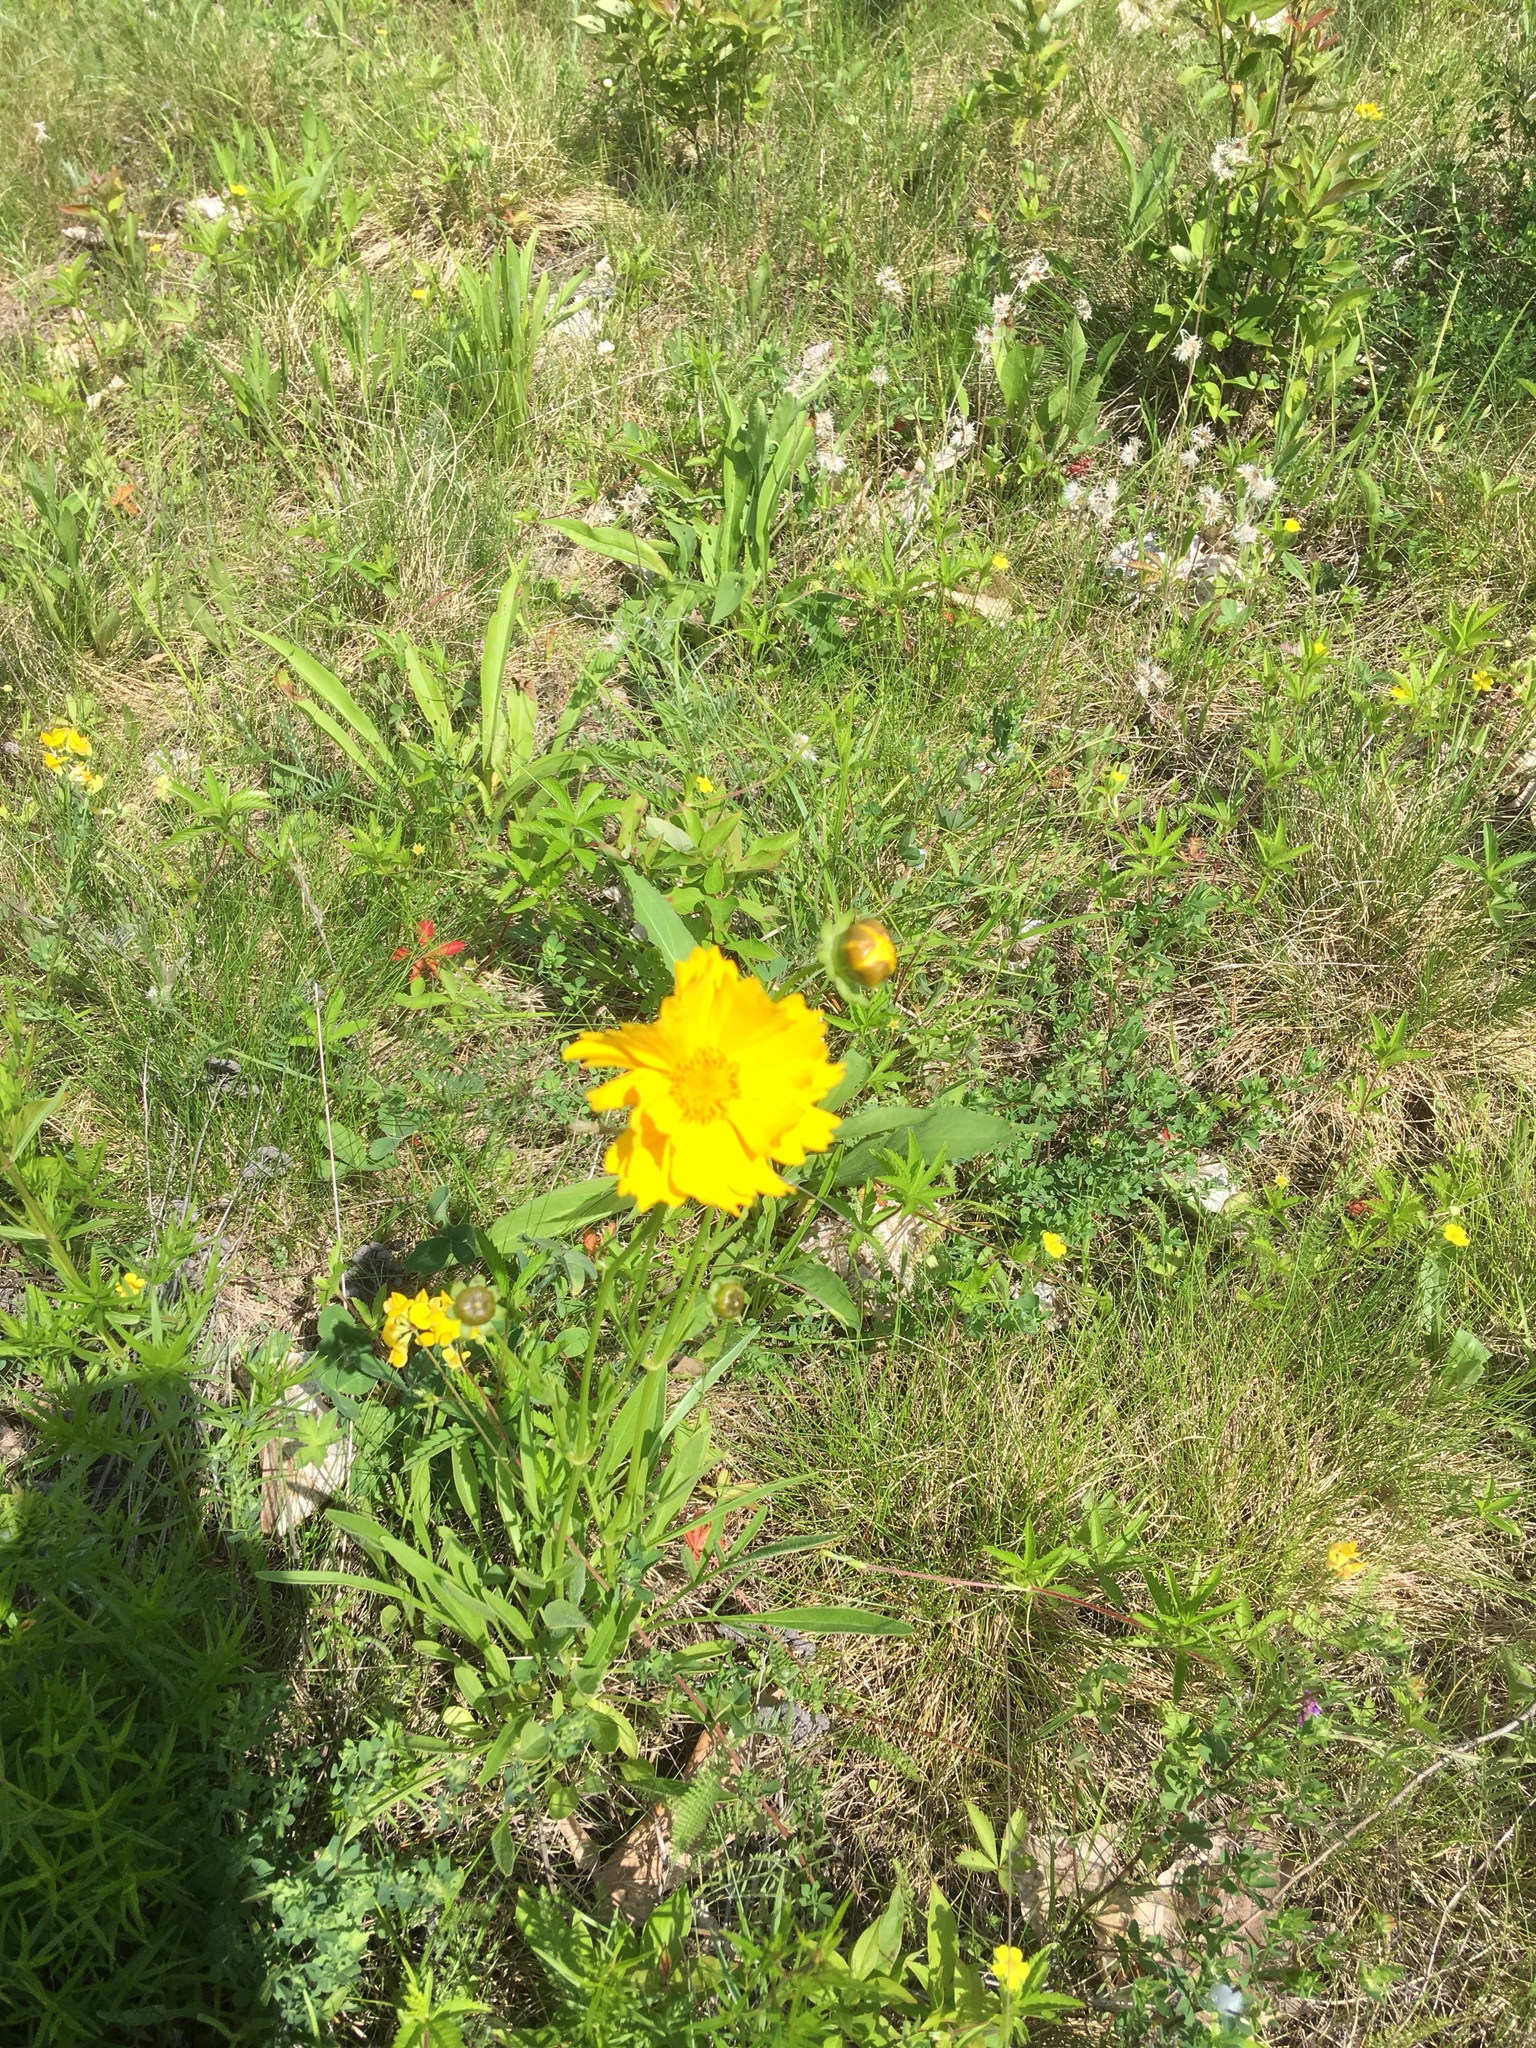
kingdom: Plantae
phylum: Tracheophyta
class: Magnoliopsida
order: Asterales
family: Asteraceae
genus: Coreopsis
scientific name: Coreopsis lanceolata
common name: Garden coreopsis
